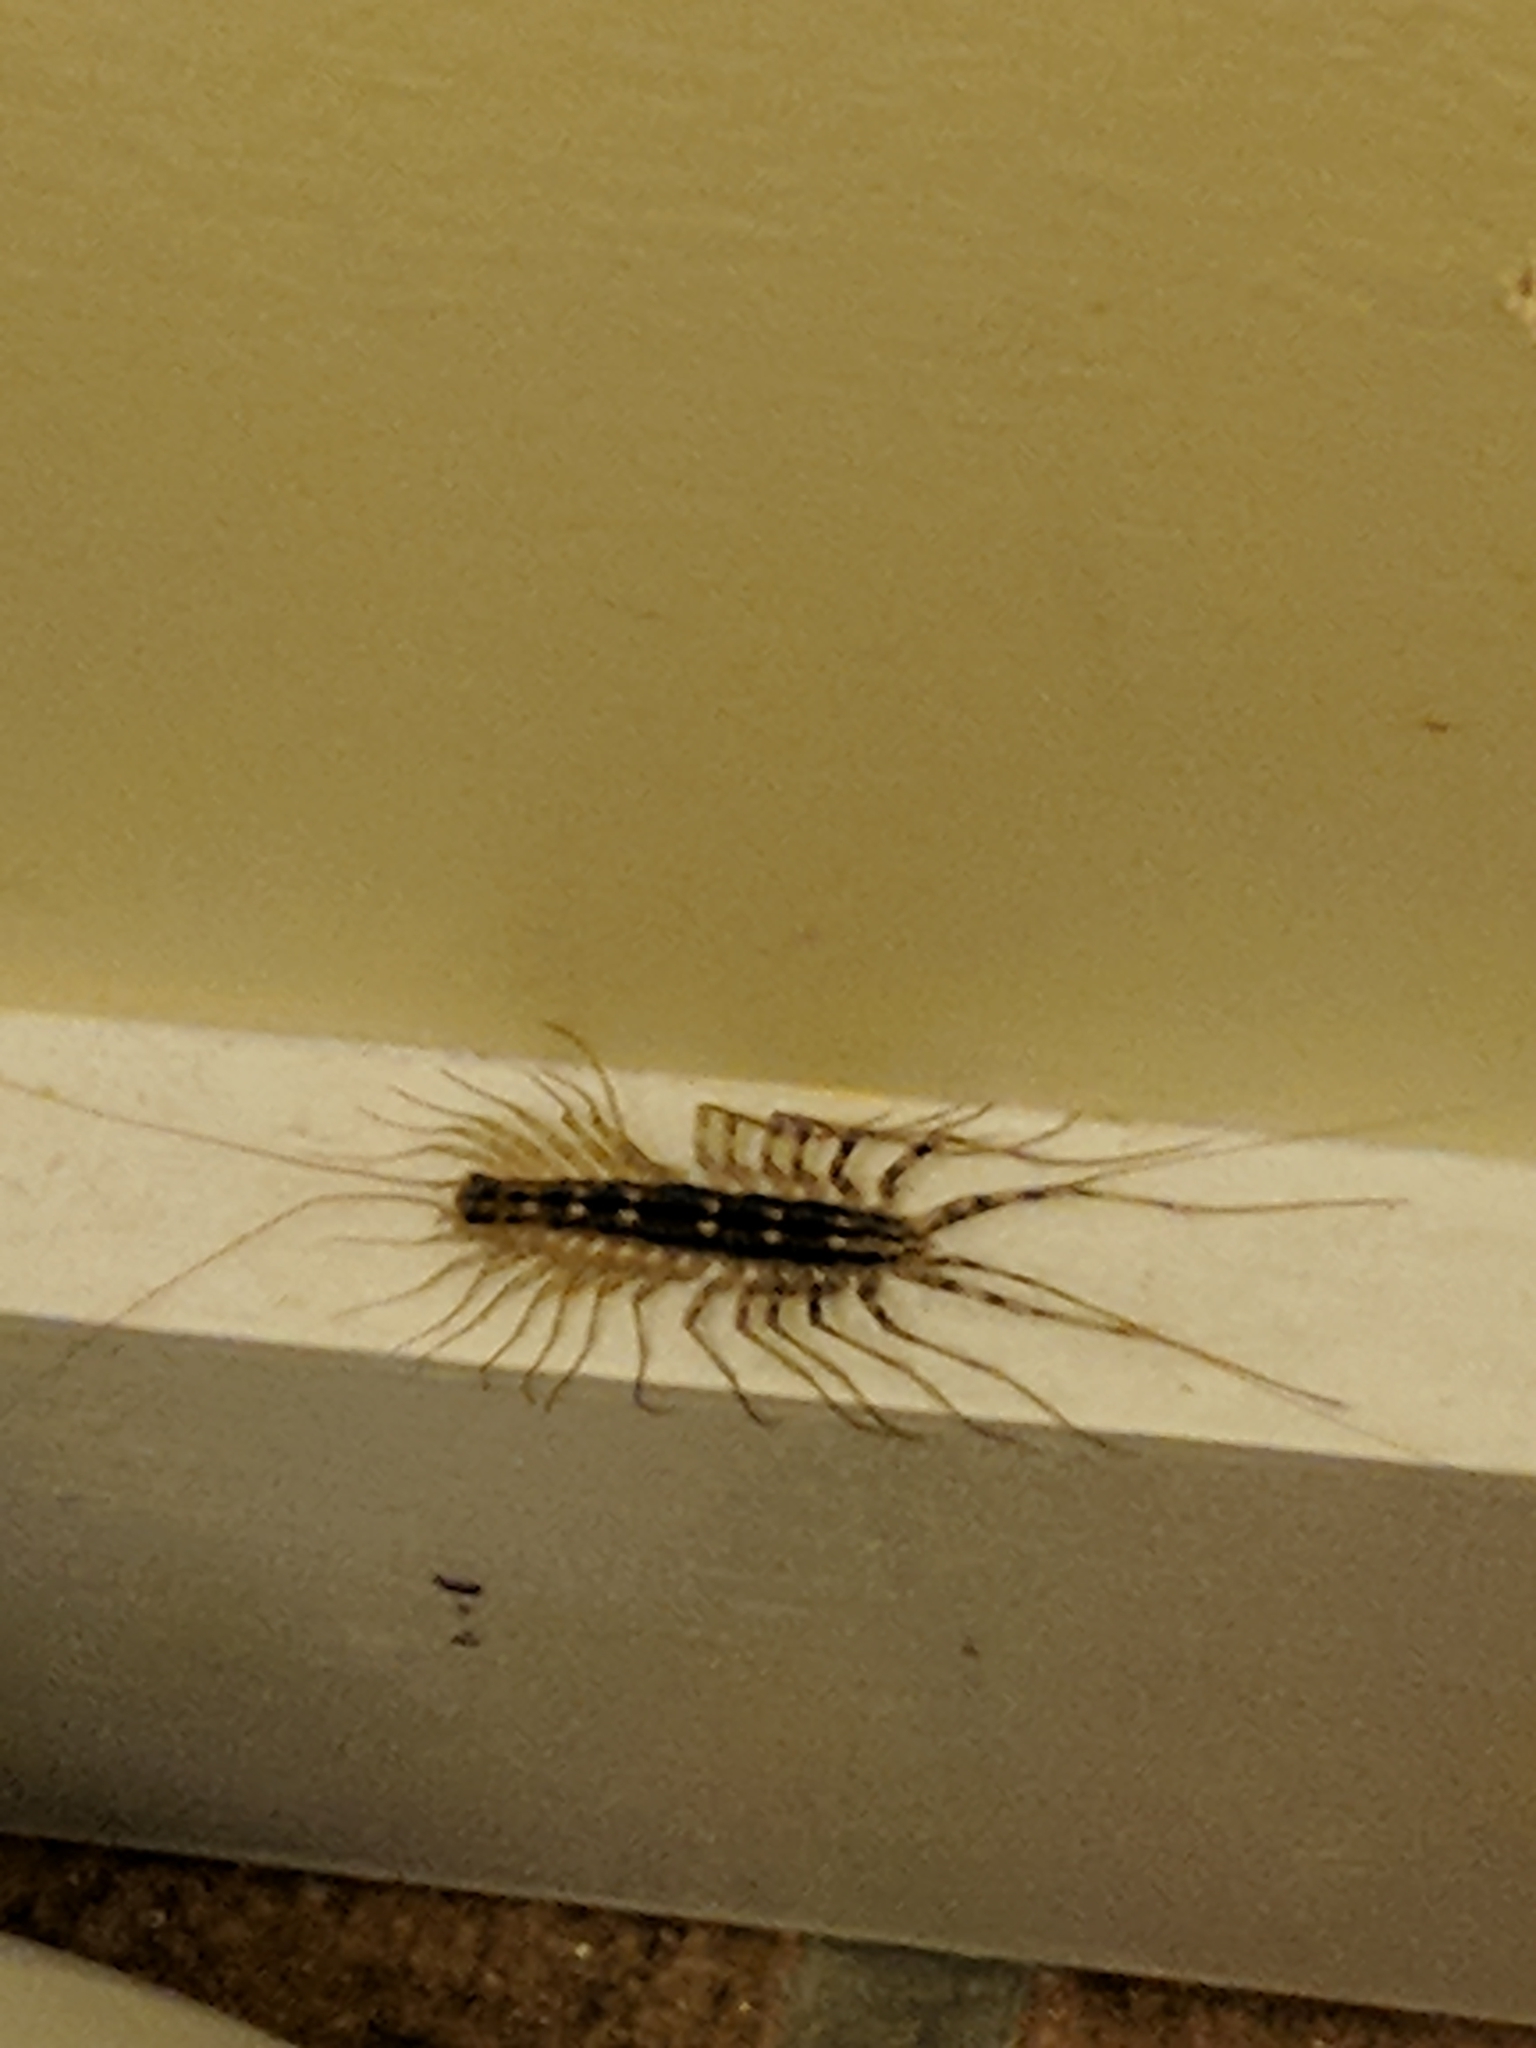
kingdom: Animalia
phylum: Arthropoda
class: Chilopoda
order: Scutigeromorpha
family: Scutigeridae
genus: Scutigera
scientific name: Scutigera coleoptrata
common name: House centipede
